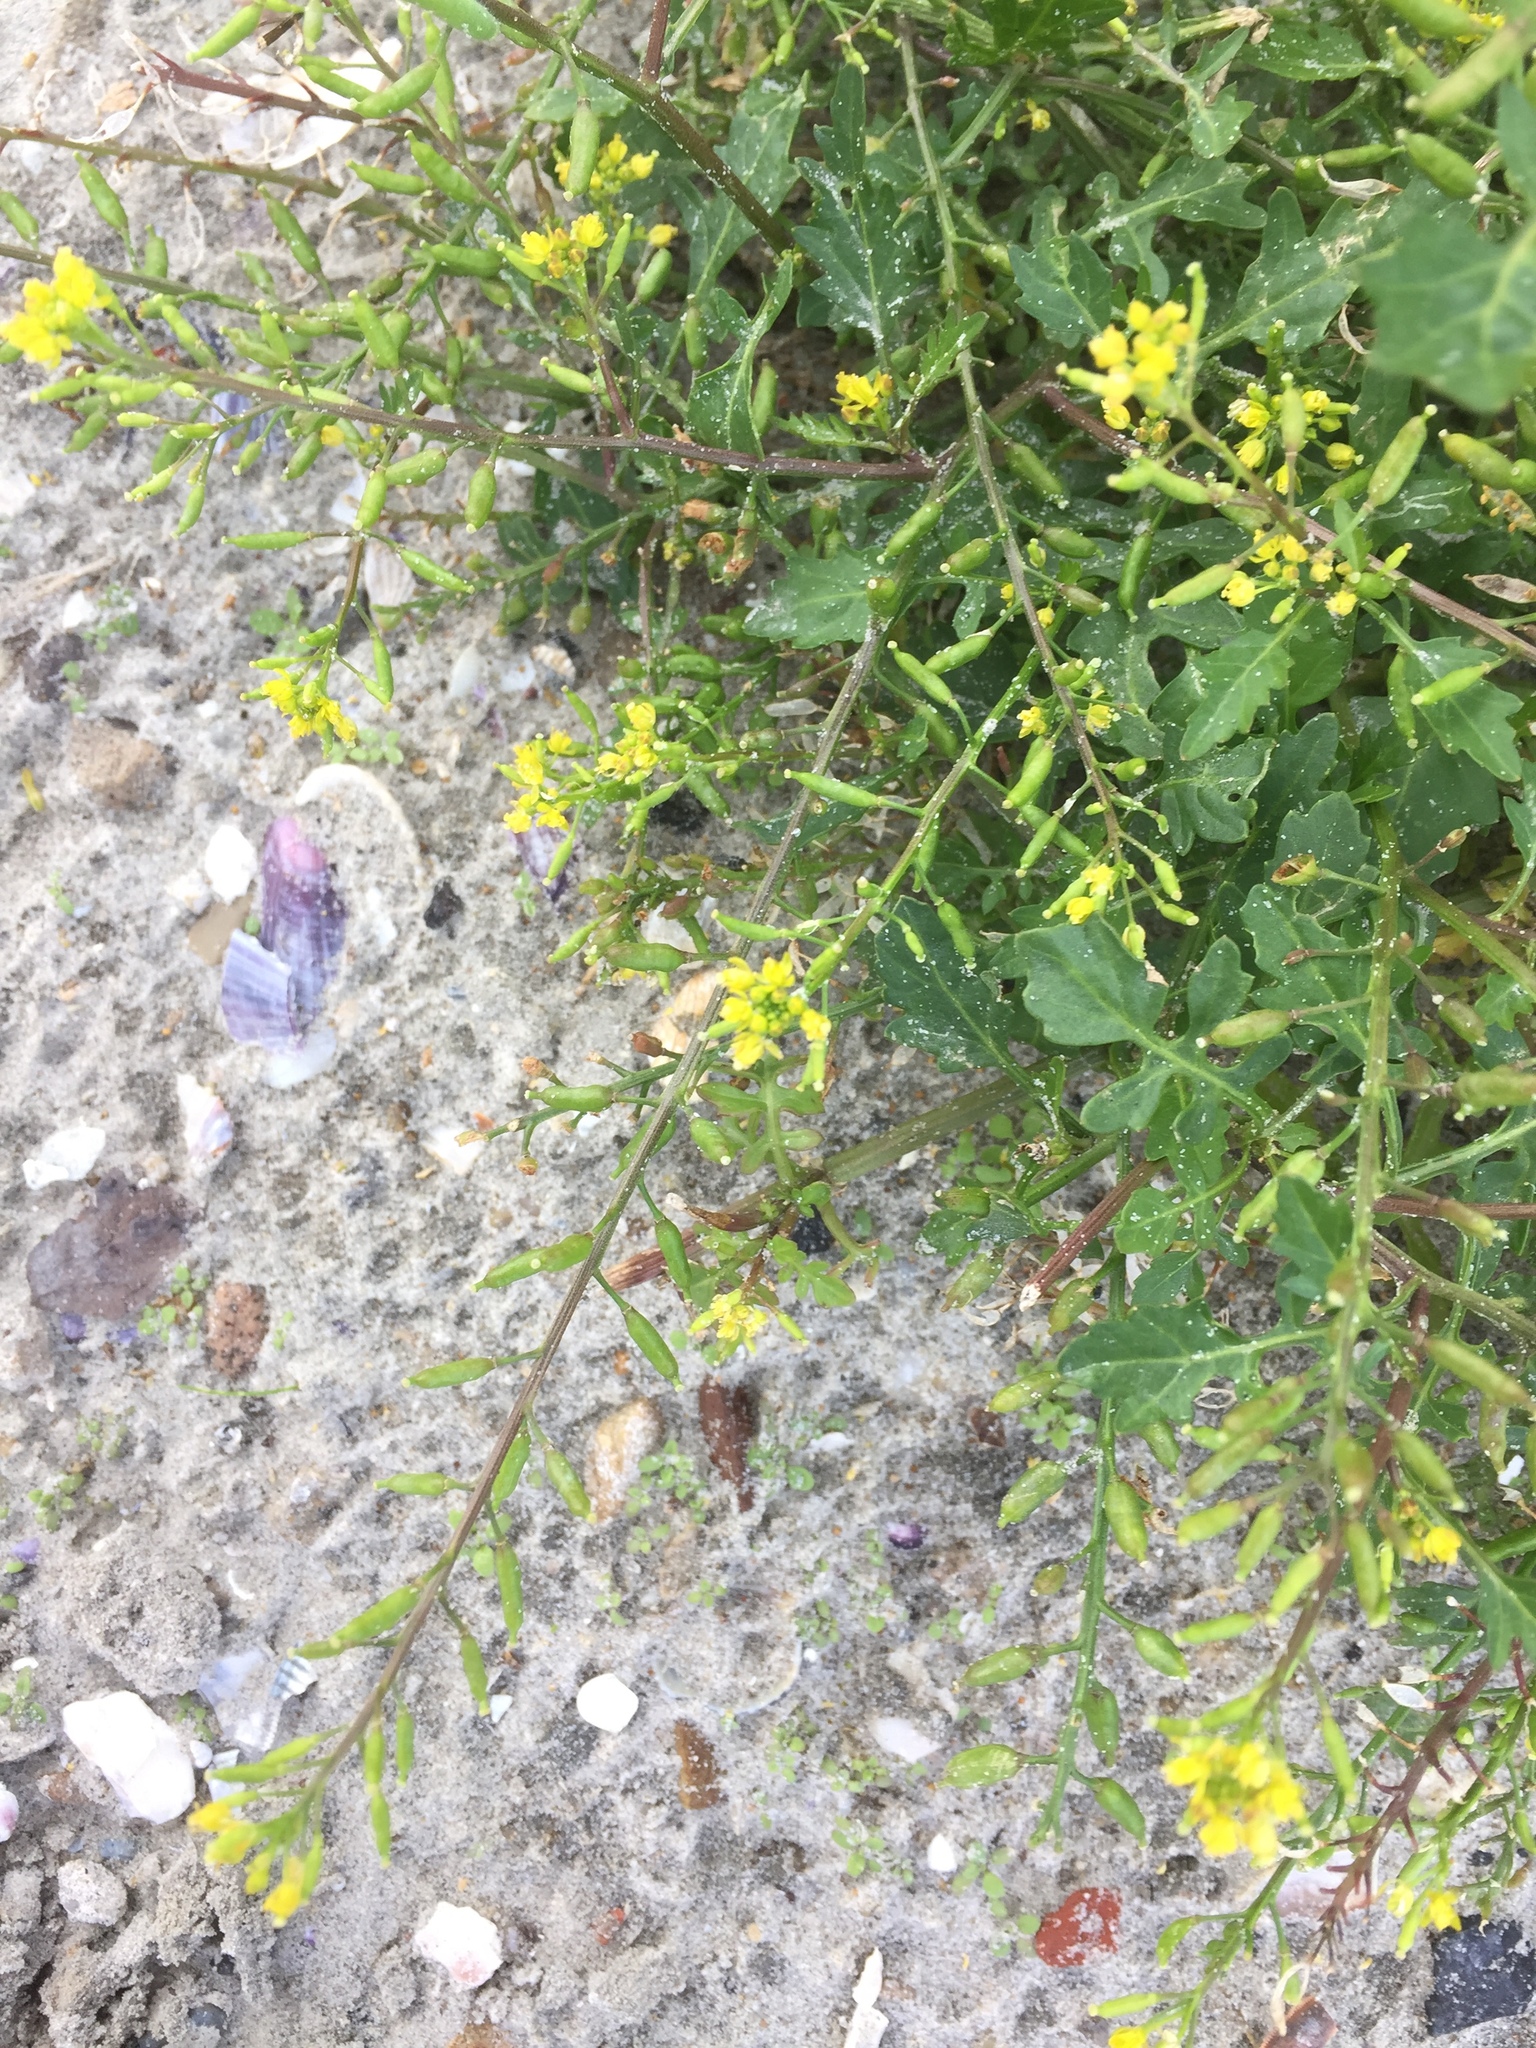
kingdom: Plantae
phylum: Tracheophyta
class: Magnoliopsida
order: Brassicales
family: Brassicaceae
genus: Rorippa
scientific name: Rorippa palustris
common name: Marsh yellow-cress
